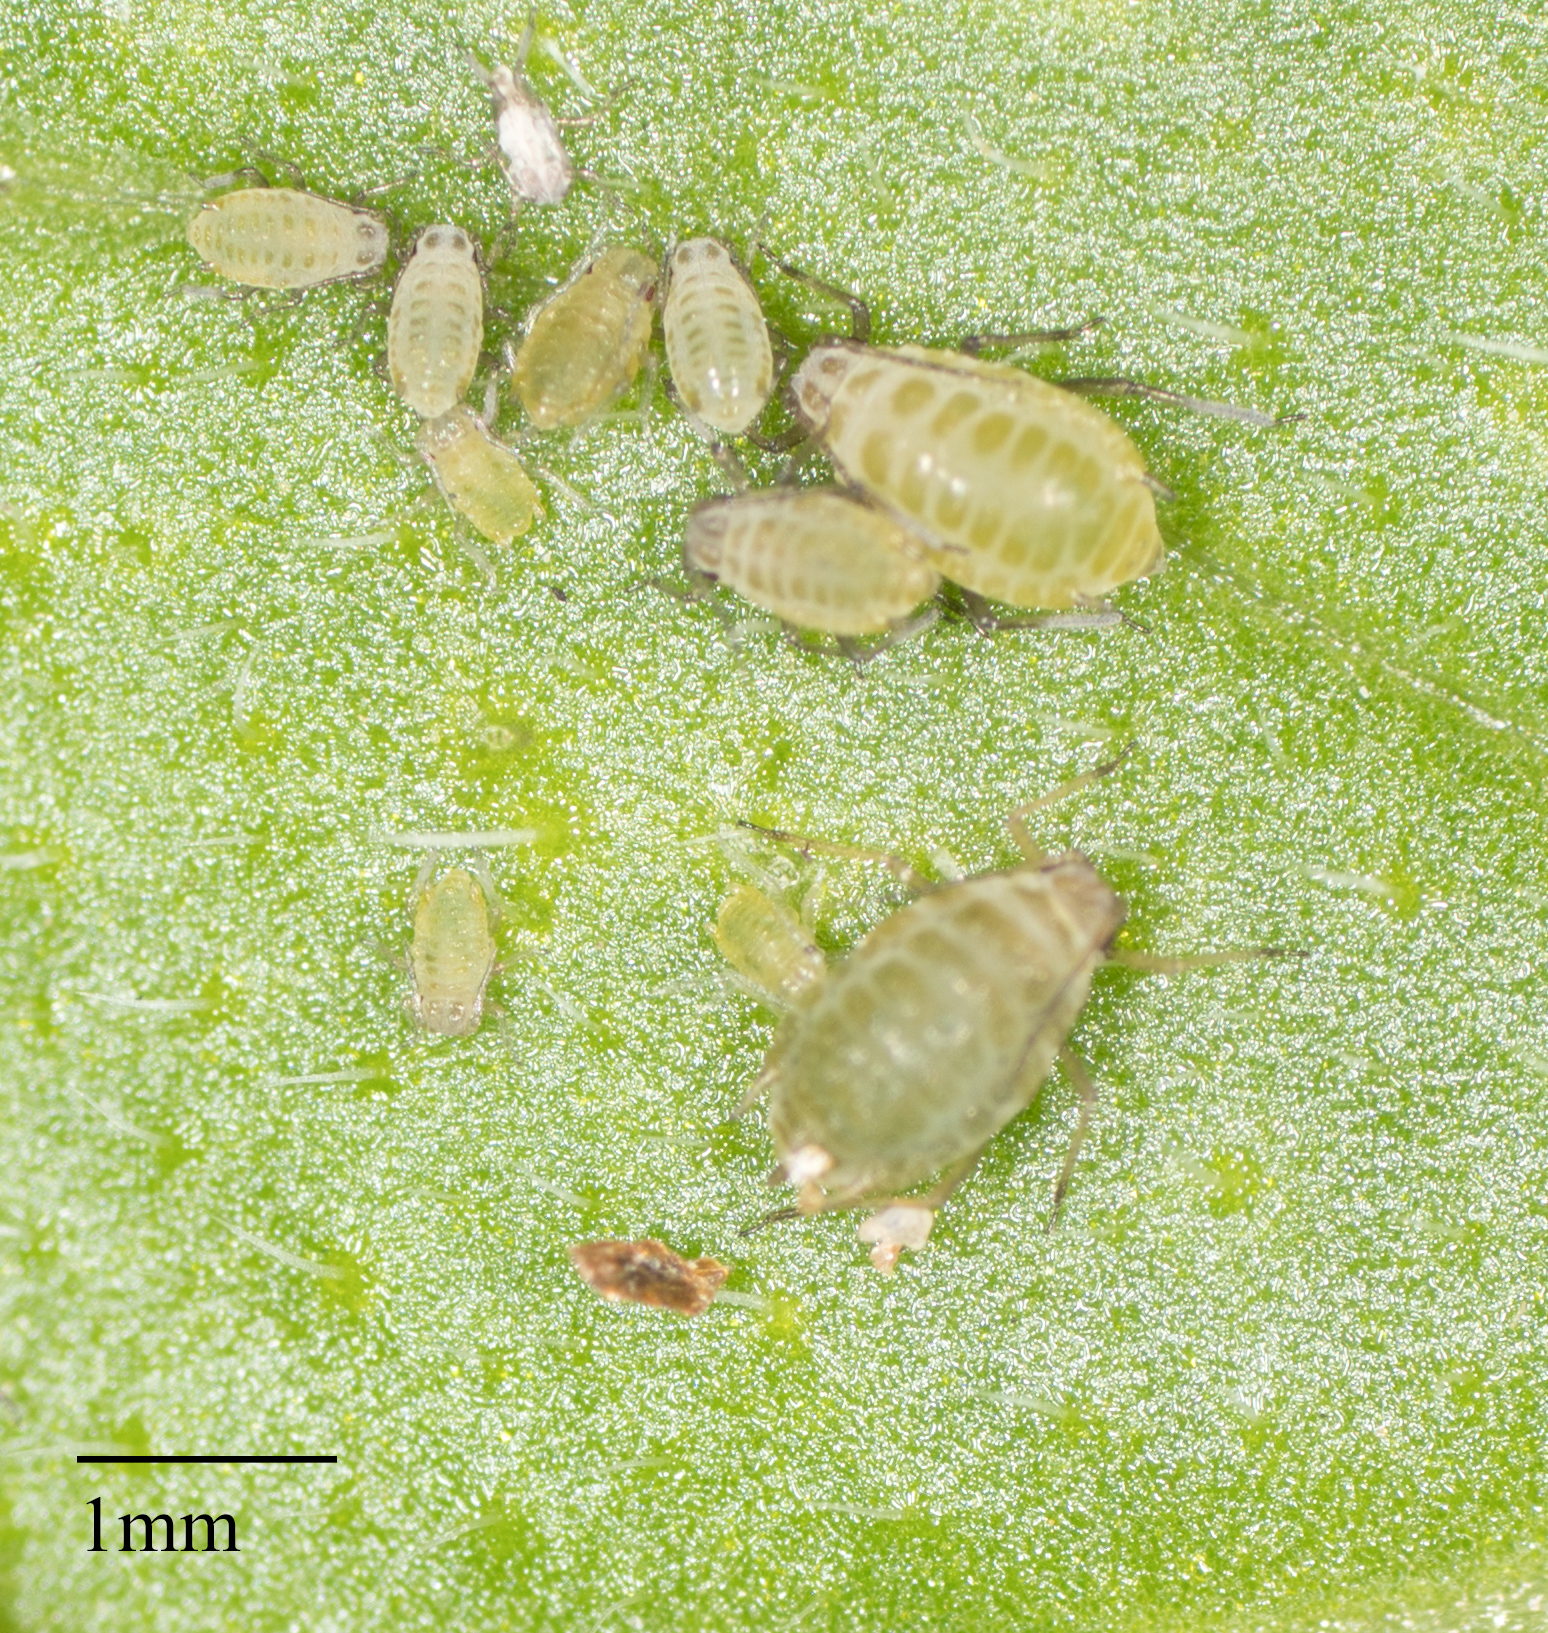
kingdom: Animalia
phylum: Arthropoda
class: Insecta
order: Hemiptera
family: Aphididae
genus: Lipaphis
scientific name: Lipaphis pseudobrassicae
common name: Turnip aphid
